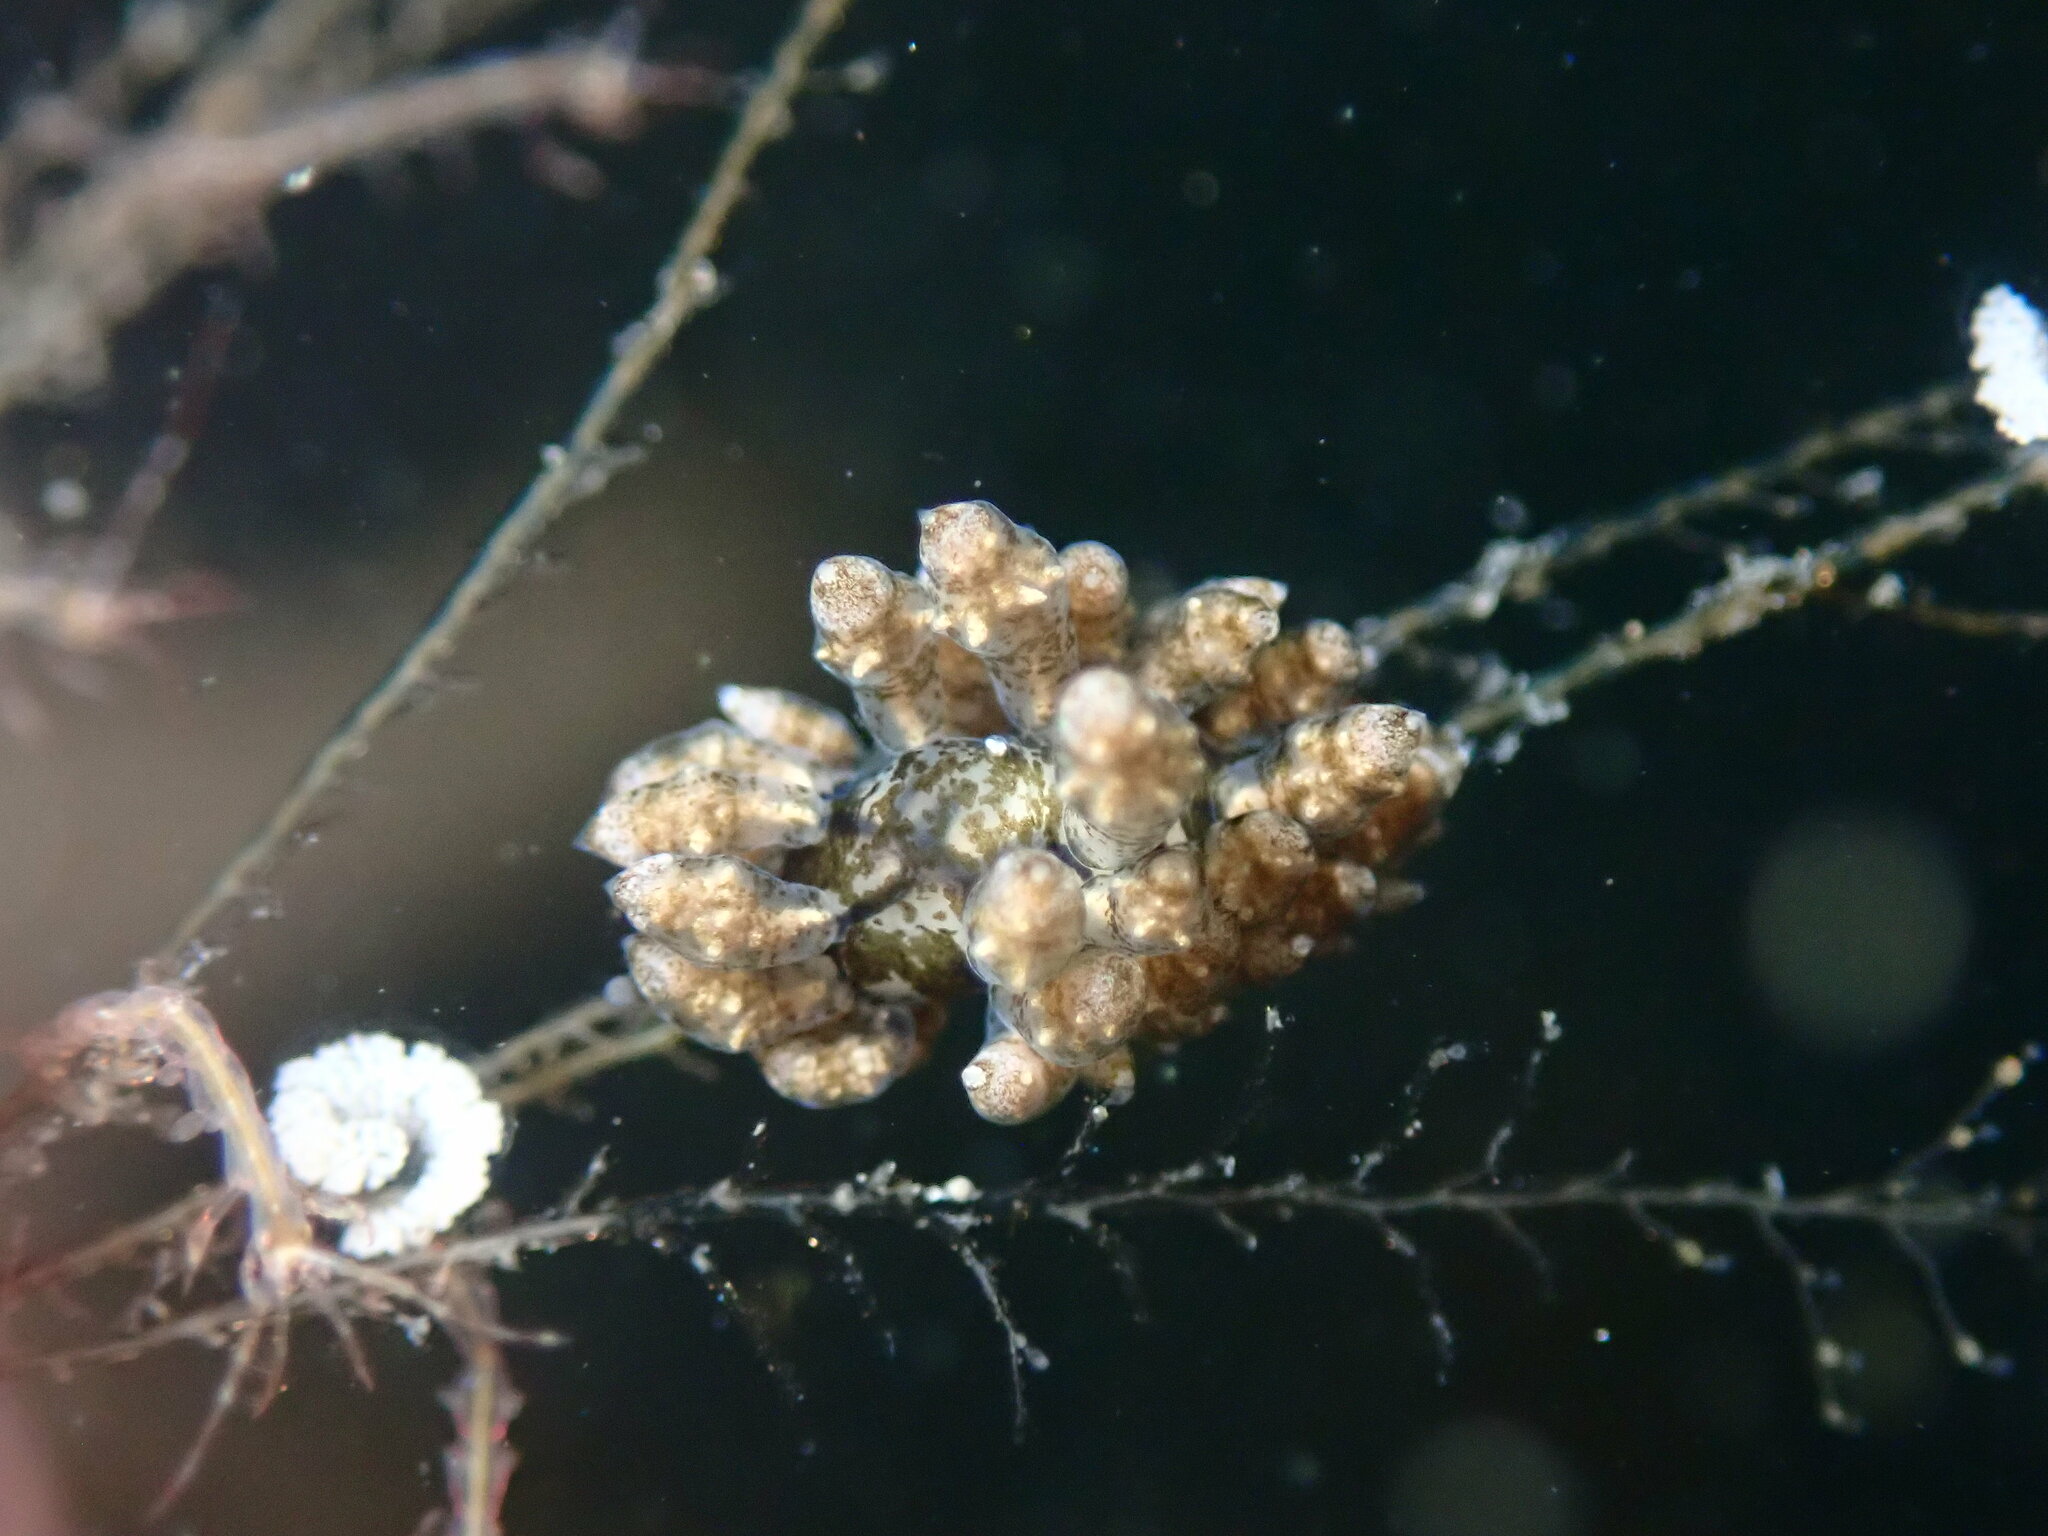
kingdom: Animalia
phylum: Mollusca
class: Gastropoda
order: Nudibranchia
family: Eubranchidae
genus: Eubranchus
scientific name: Eubranchus rustyus
